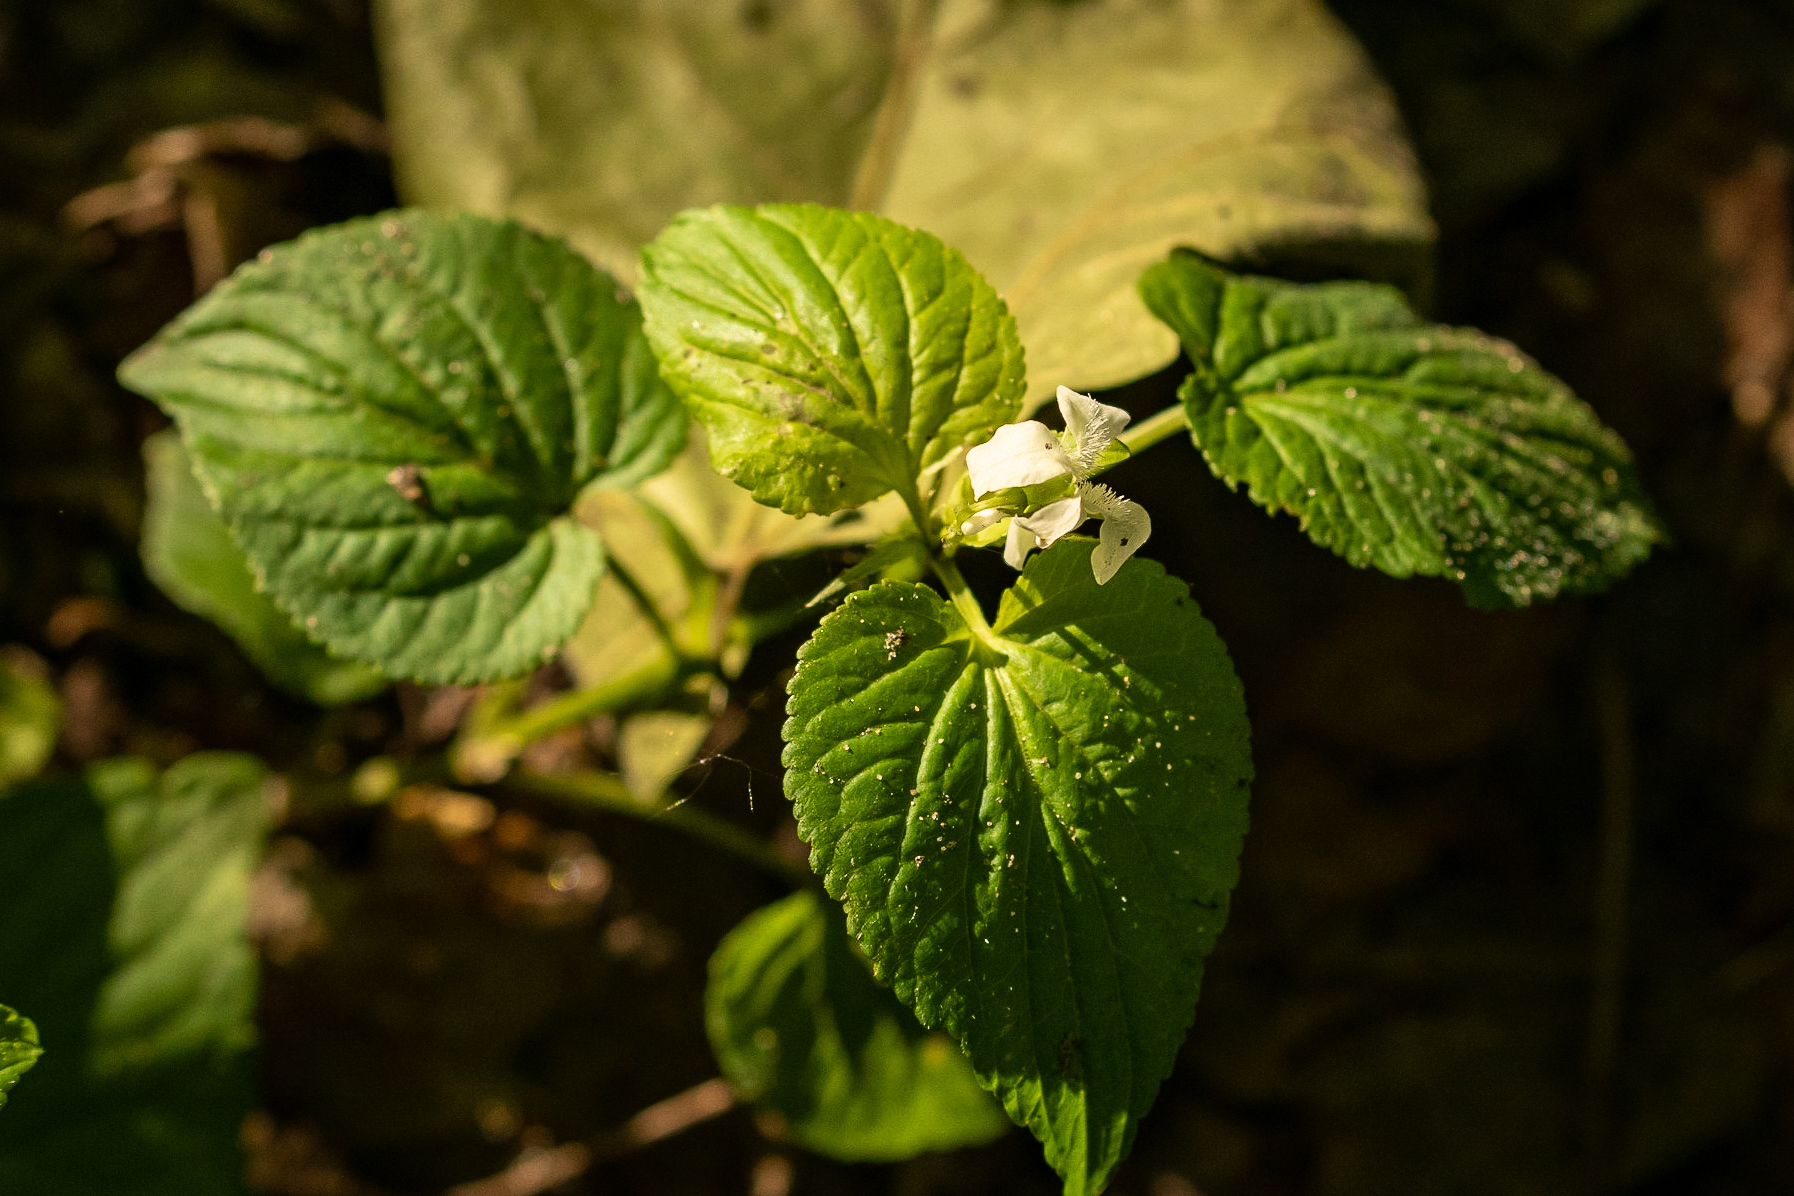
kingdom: Plantae
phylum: Tracheophyta
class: Magnoliopsida
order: Malpighiales
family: Violaceae
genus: Viola
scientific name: Viola striata
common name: Cream violet
